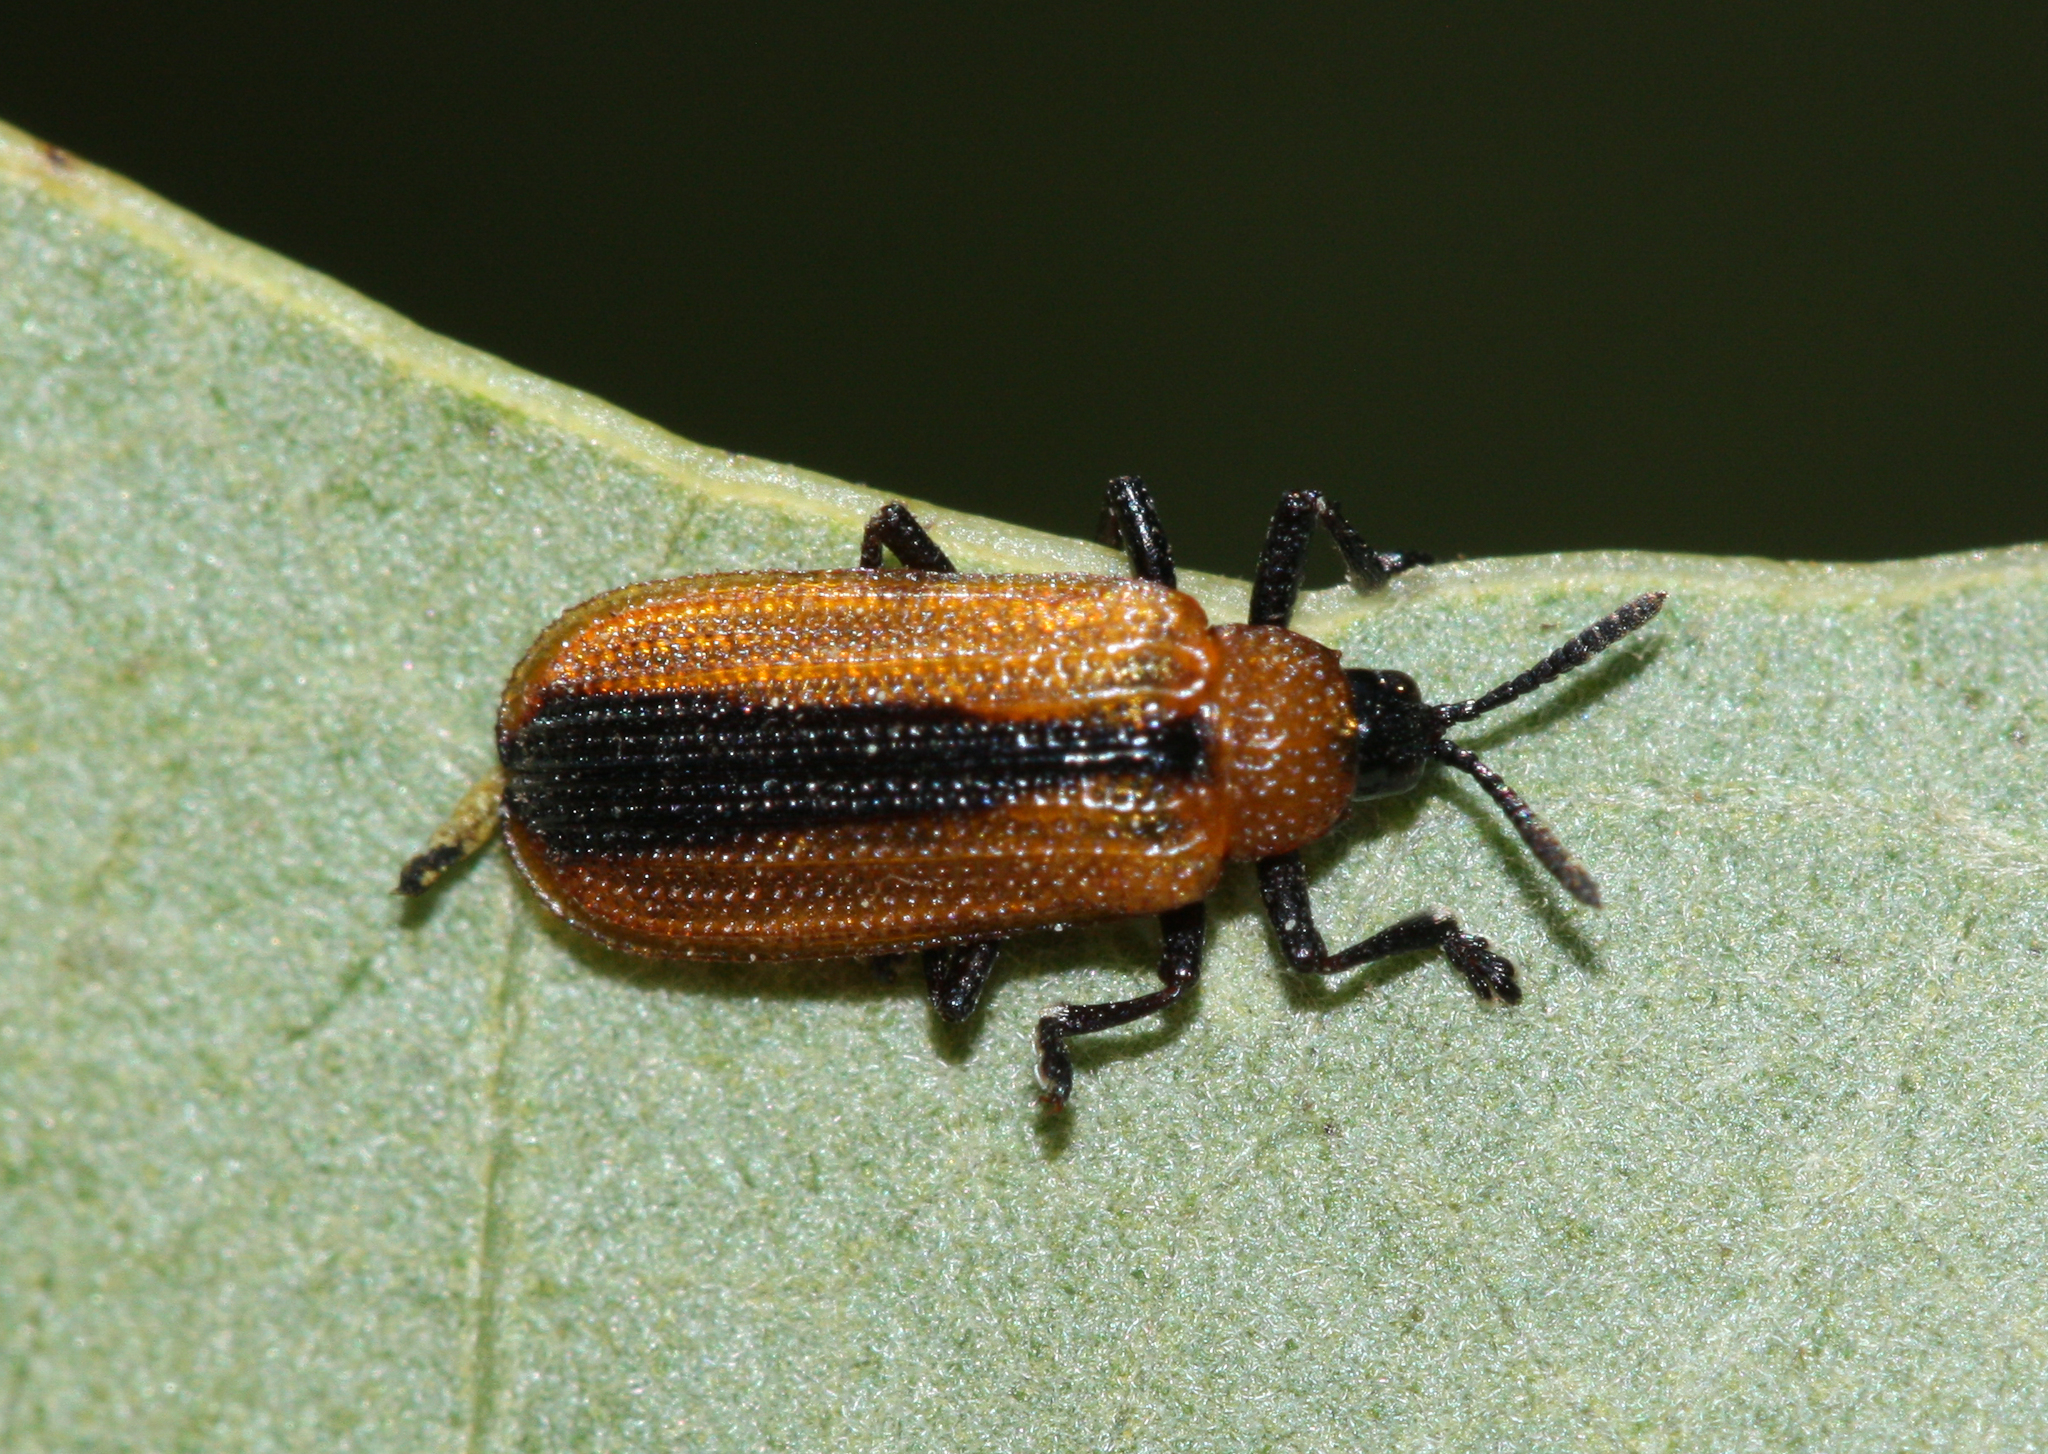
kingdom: Animalia
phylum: Arthropoda
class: Insecta
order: Coleoptera
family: Chrysomelidae
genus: Odontota
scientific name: Odontota dorsalis
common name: Locust leaf-miner beetle
